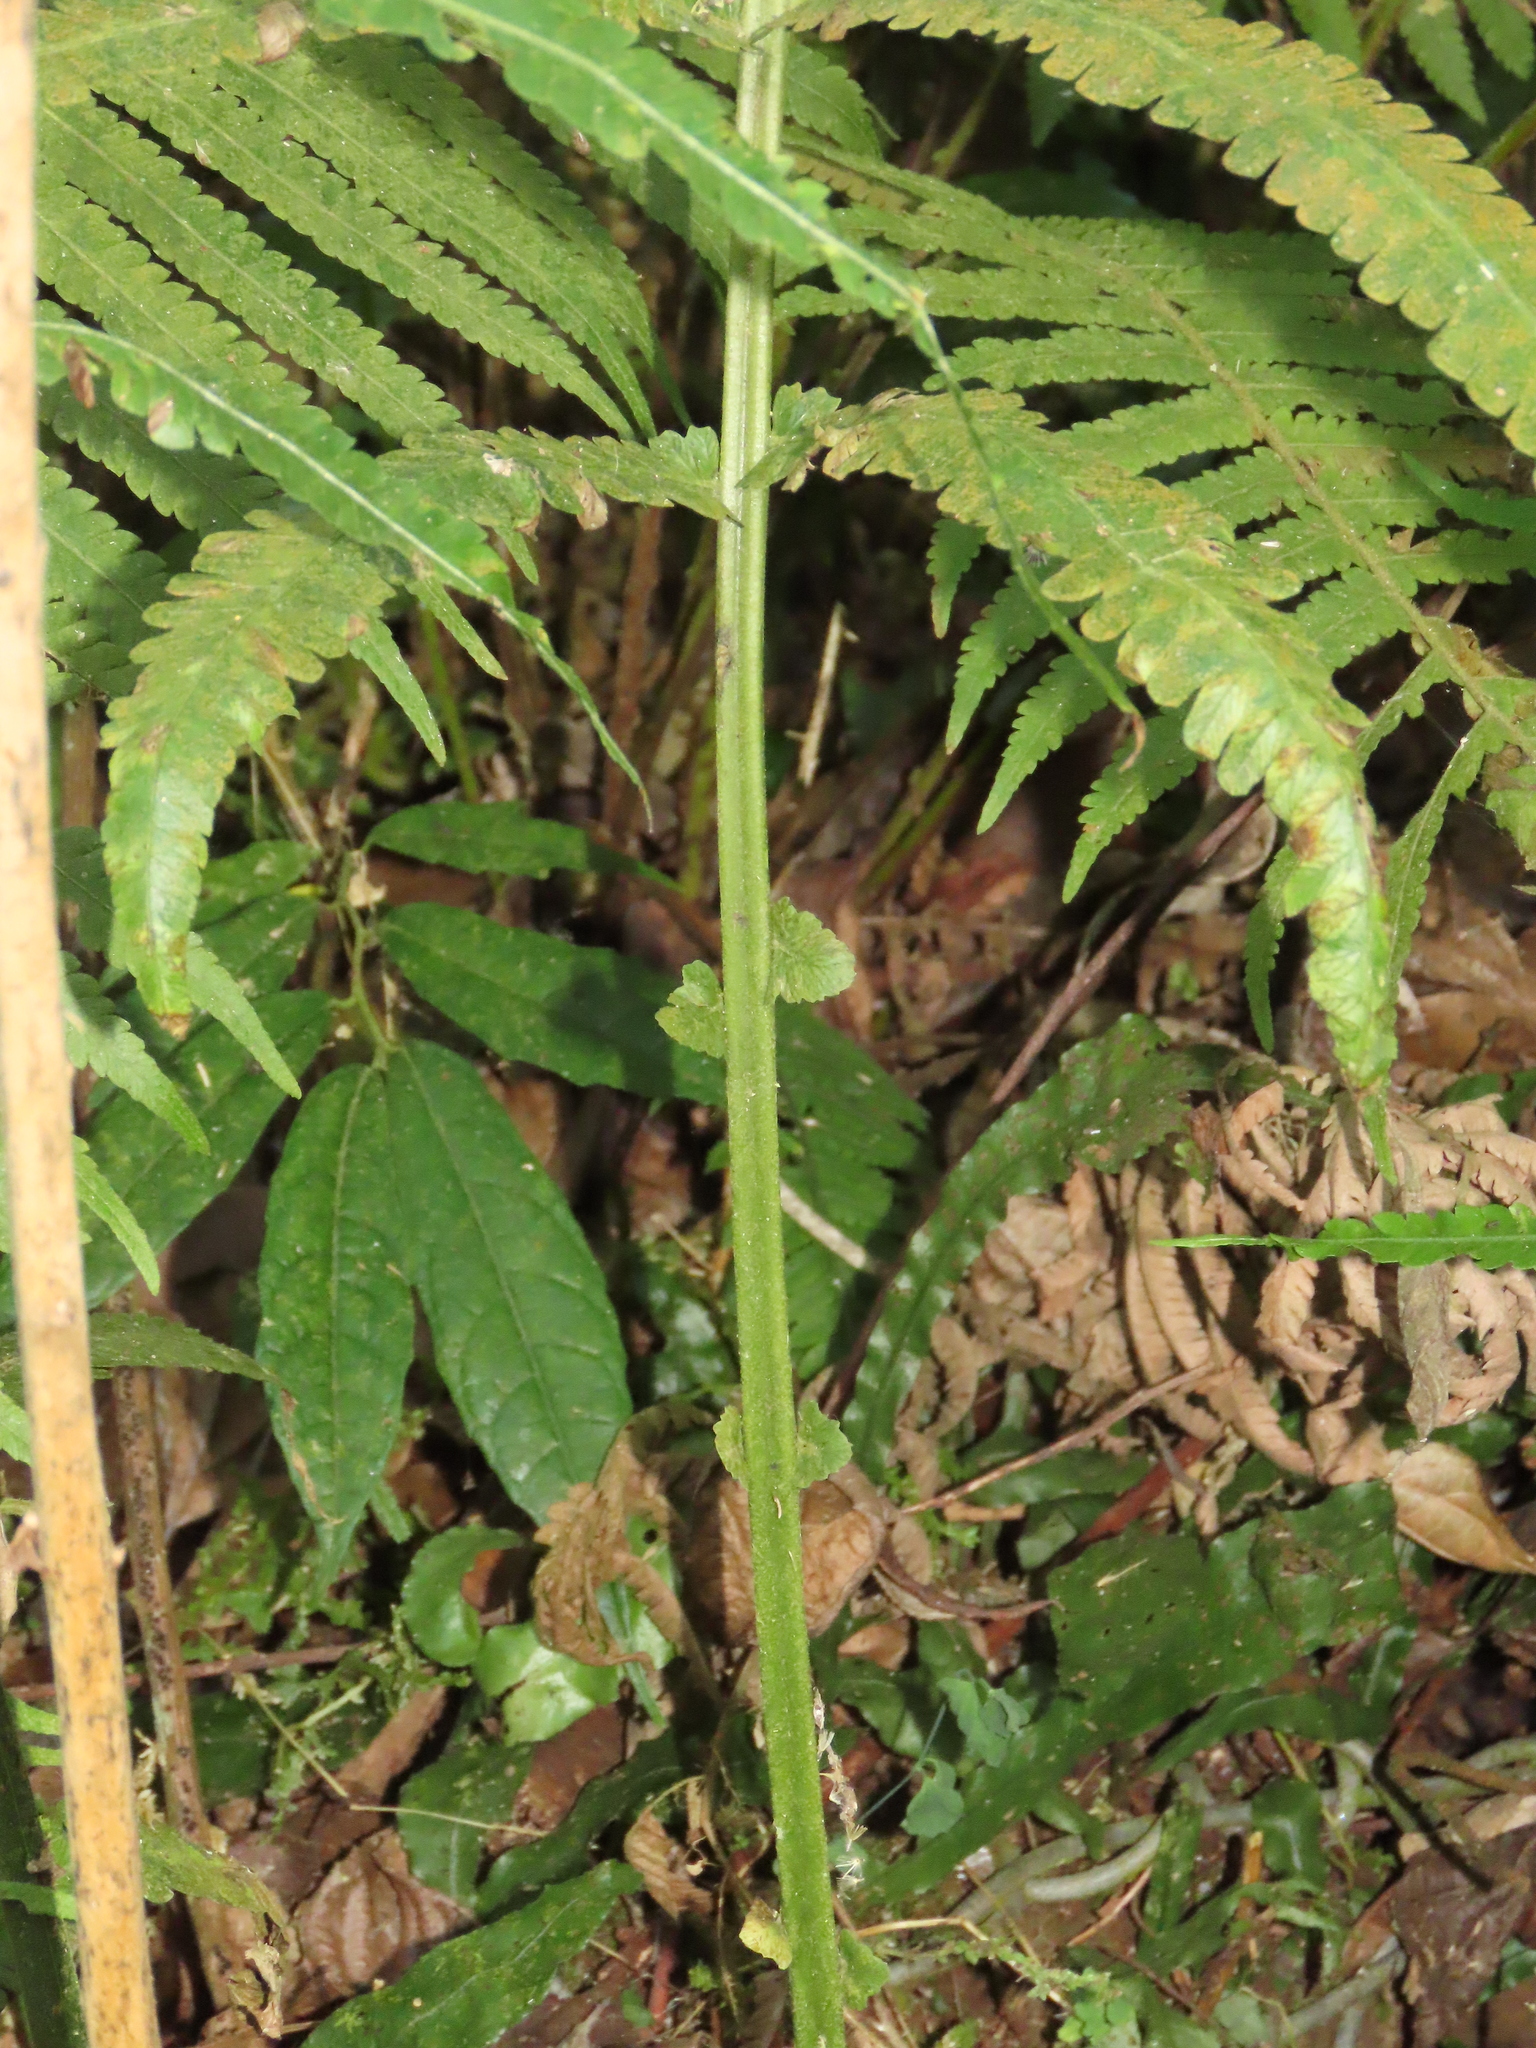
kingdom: Plantae
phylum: Tracheophyta
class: Polypodiopsida
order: Polypodiales
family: Thelypteridaceae
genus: Reholttumia
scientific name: Reholttumia truncata
